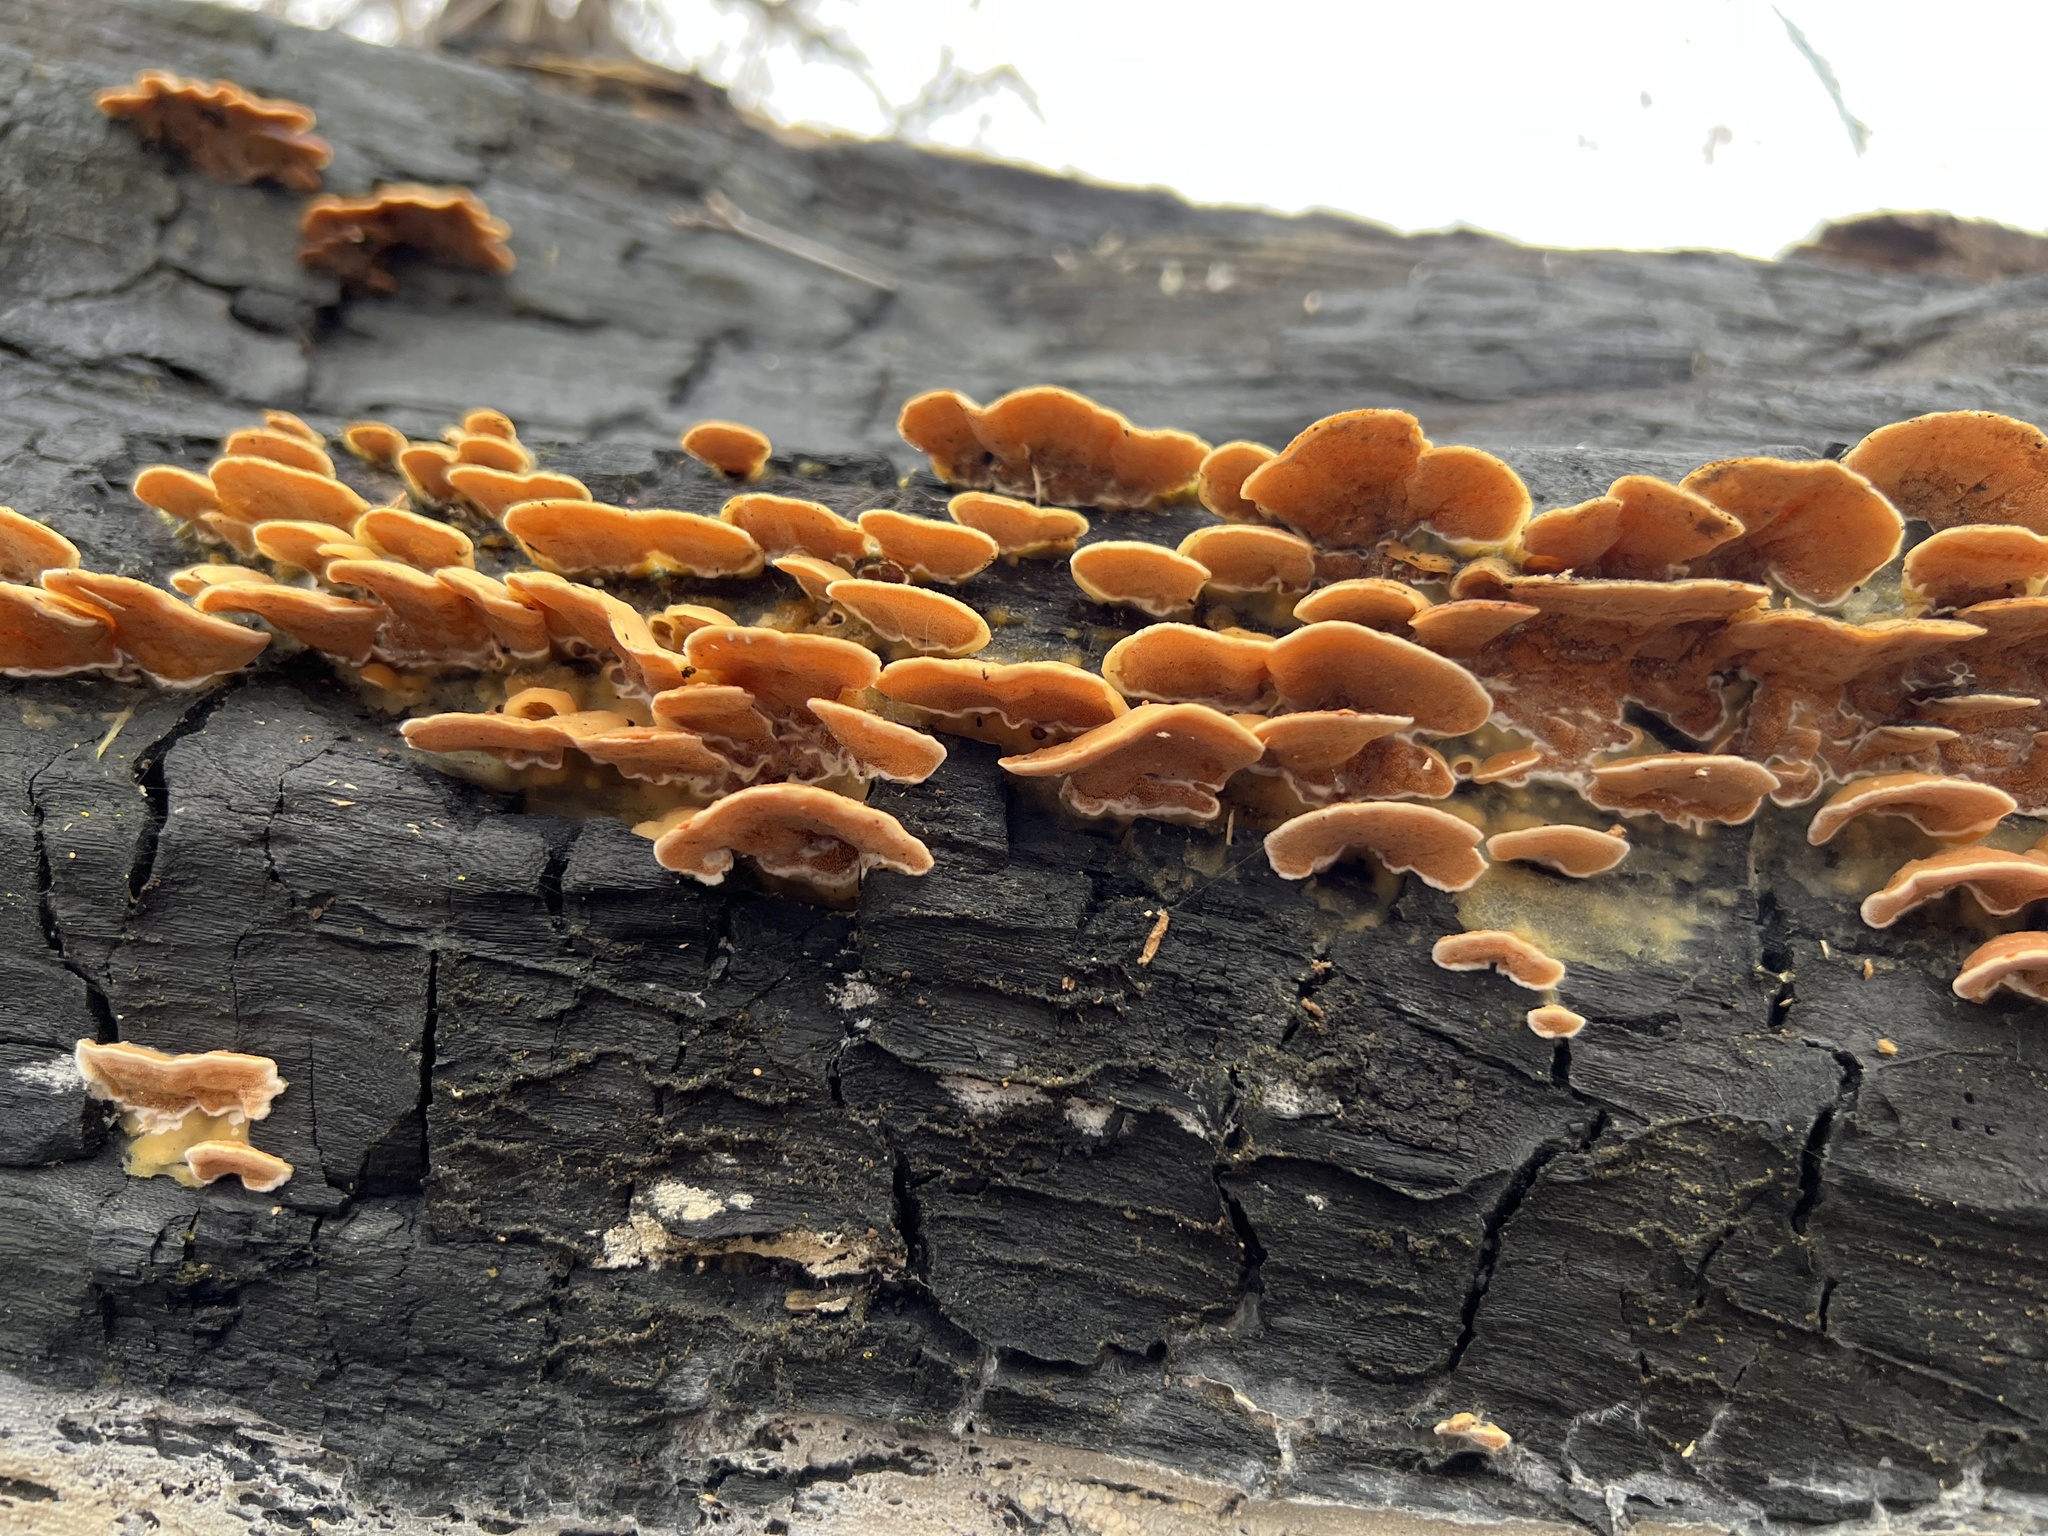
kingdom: Fungi
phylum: Basidiomycota
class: Agaricomycetes
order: Polyporales
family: Irpicaceae
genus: Vitreoporus
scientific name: Vitreoporus dichrous
